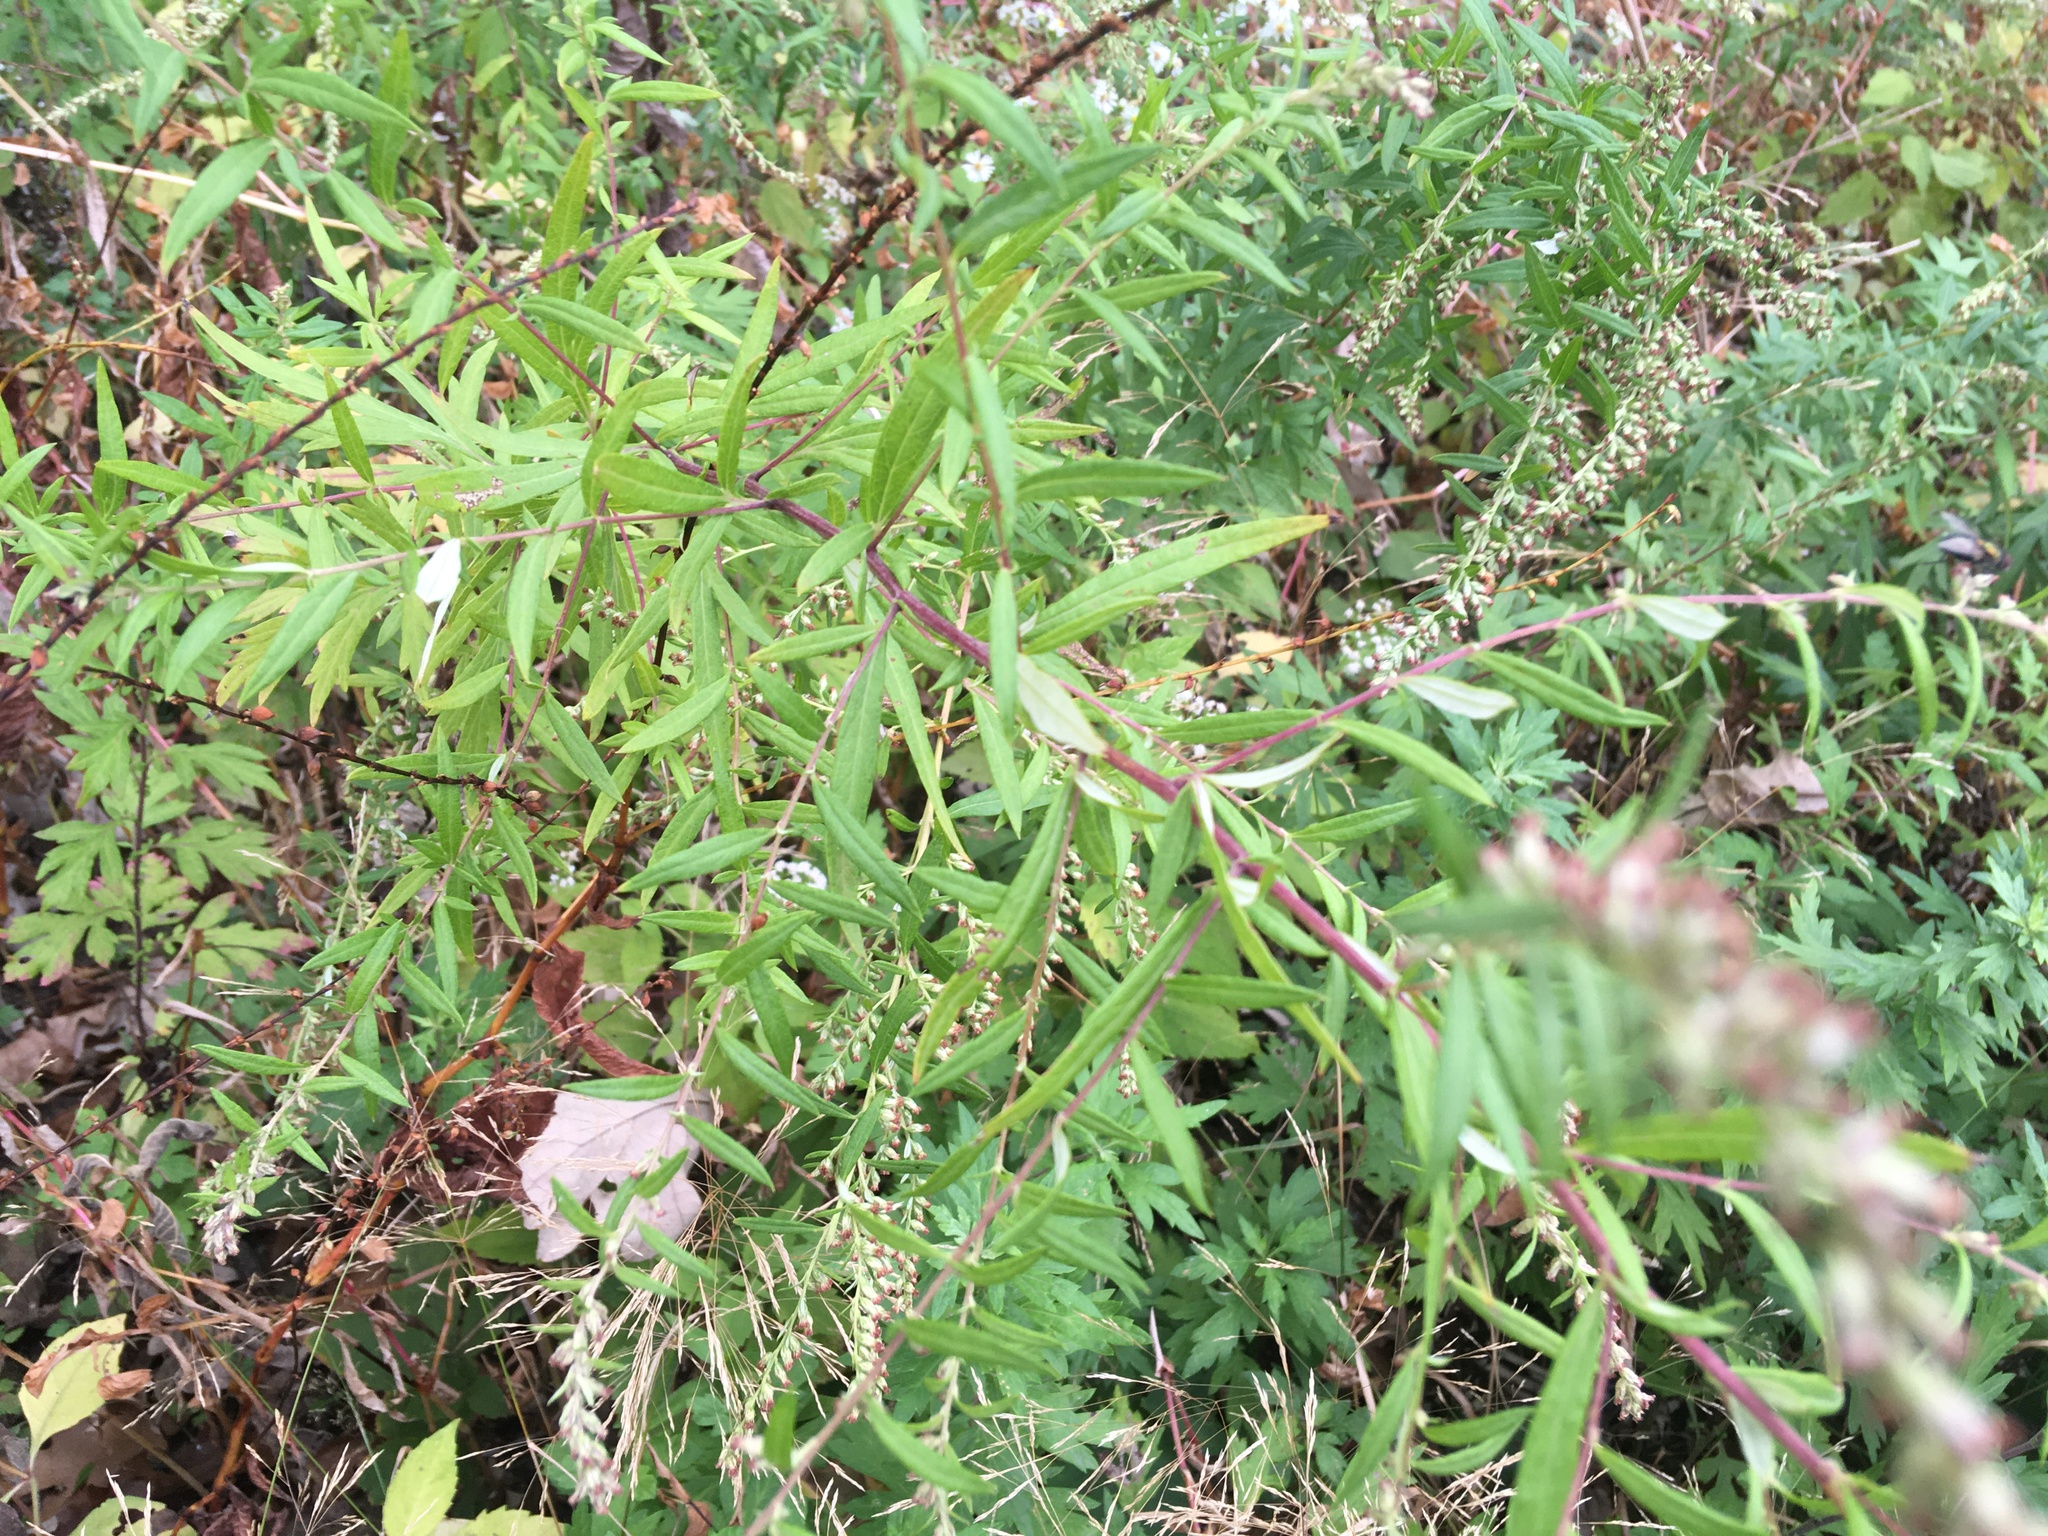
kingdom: Plantae
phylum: Tracheophyta
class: Magnoliopsida
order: Asterales
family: Asteraceae
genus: Artemisia
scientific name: Artemisia vulgaris
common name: Mugwort
